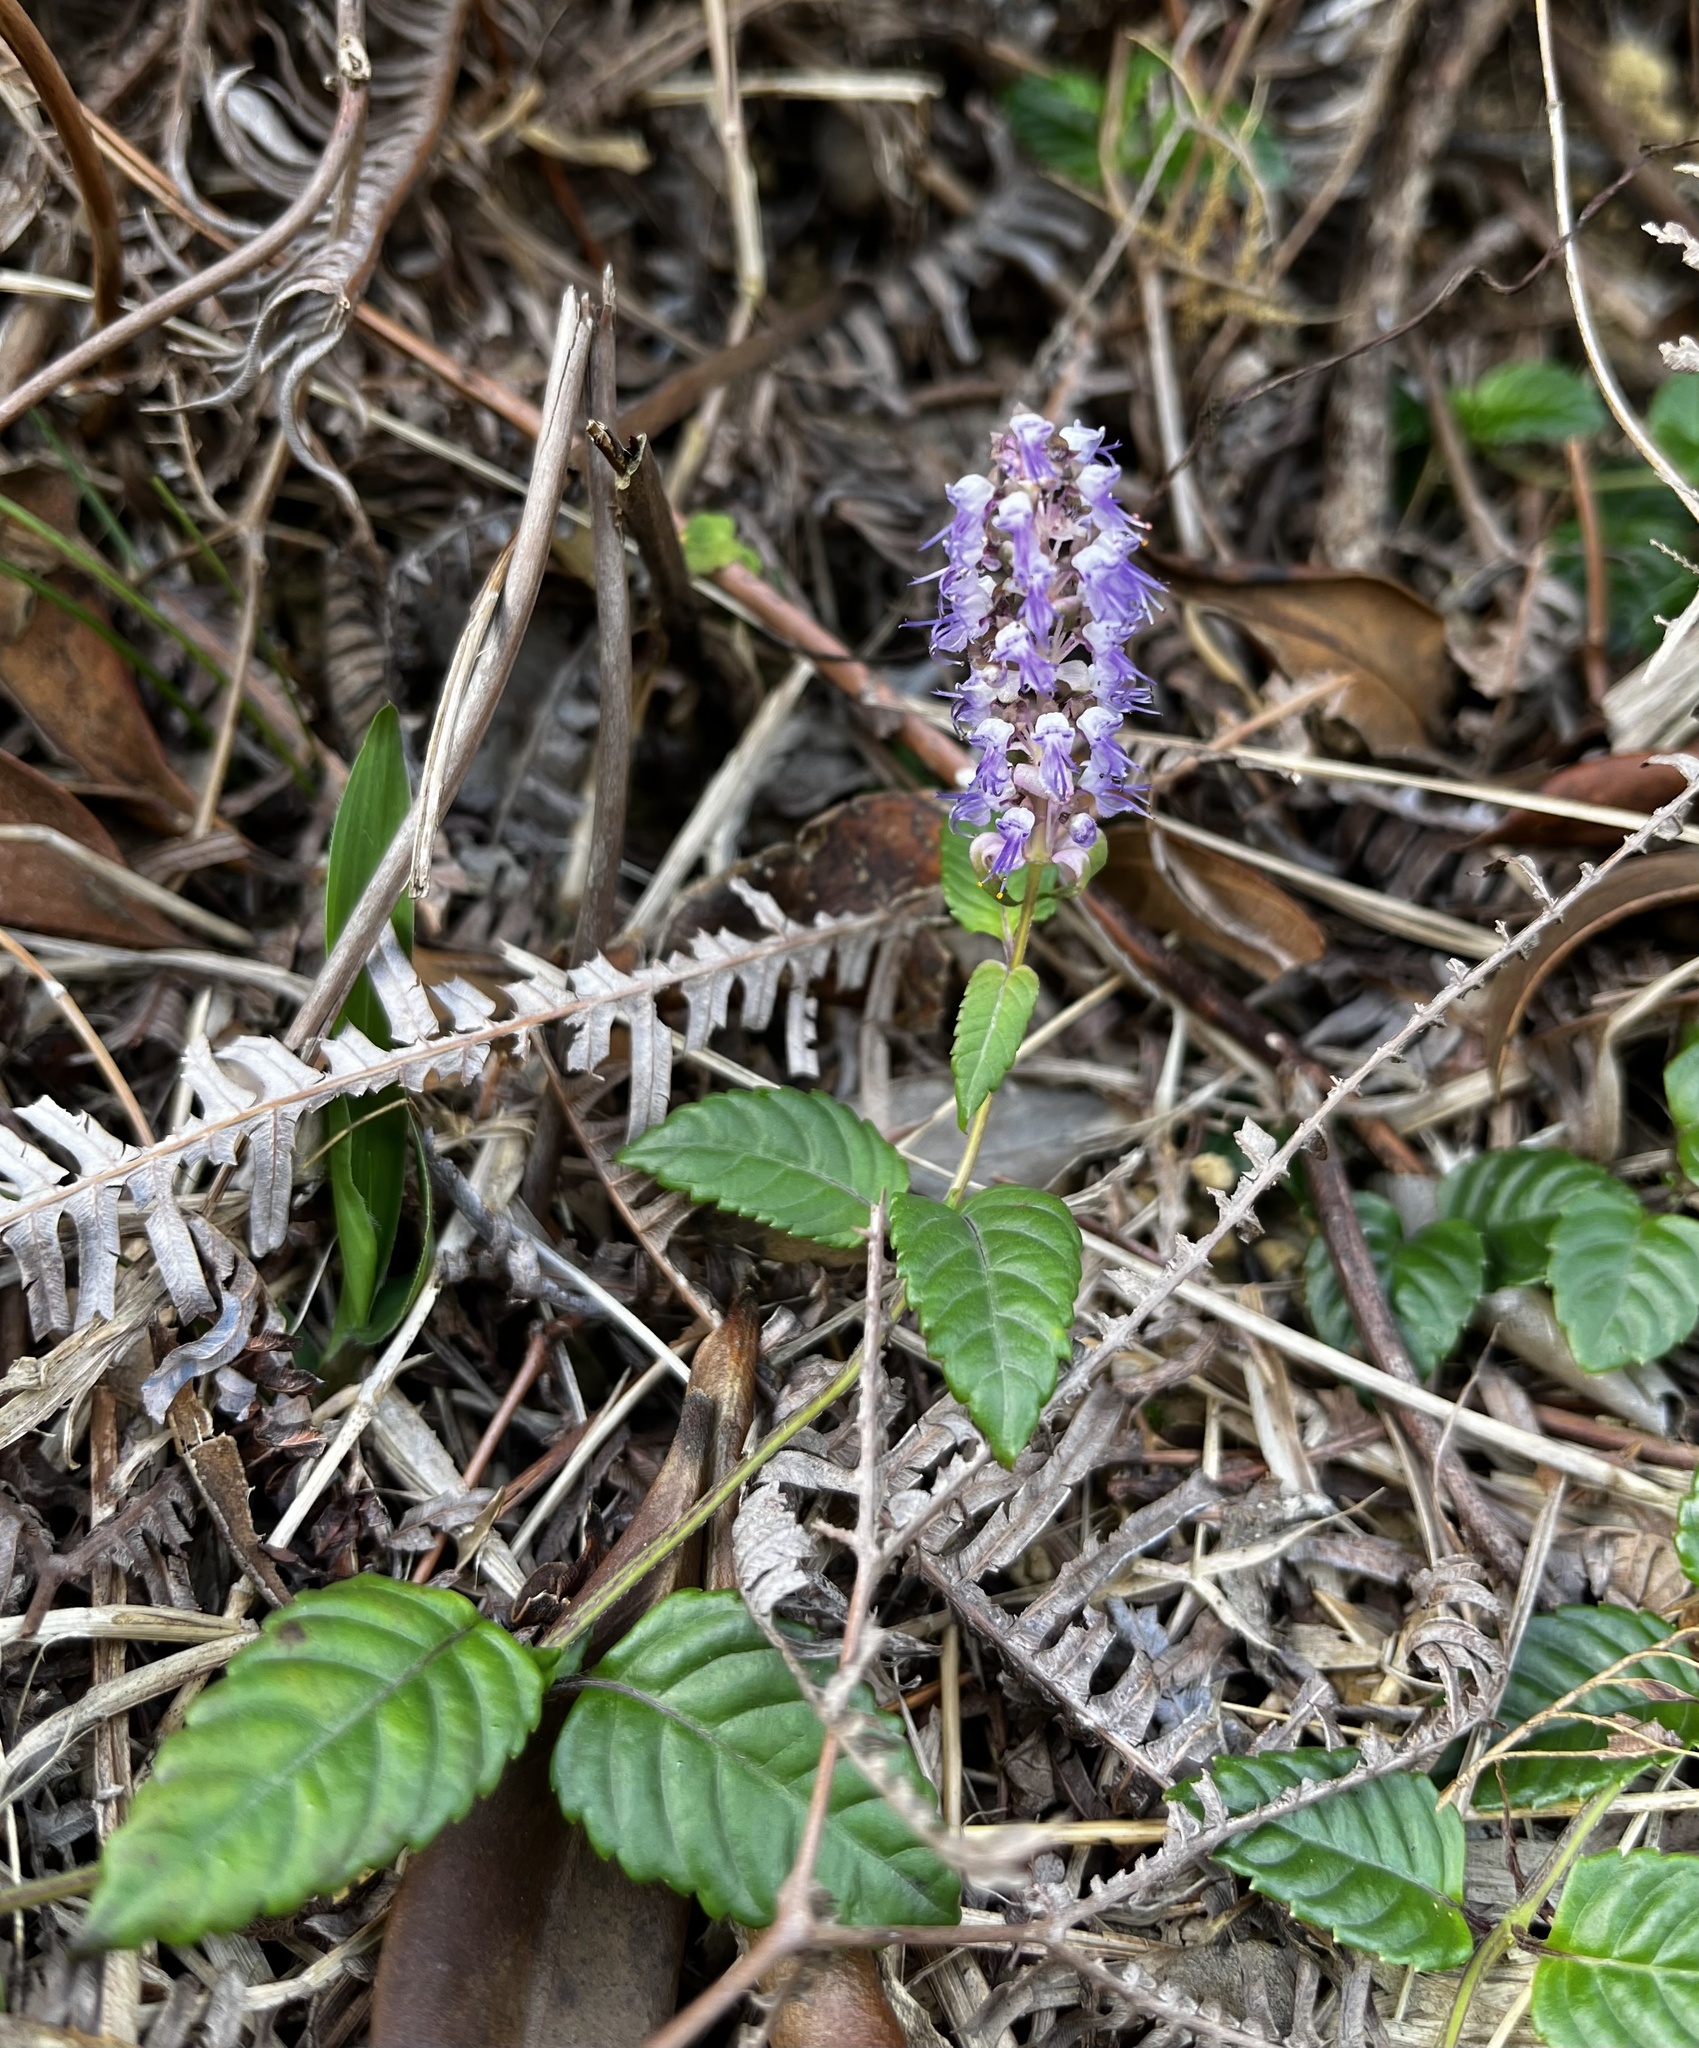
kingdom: Plantae
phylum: Tracheophyta
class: Magnoliopsida
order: Lamiales
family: Lamiaceae
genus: Platostoma
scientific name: Platostoma palustre
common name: Black cincau
